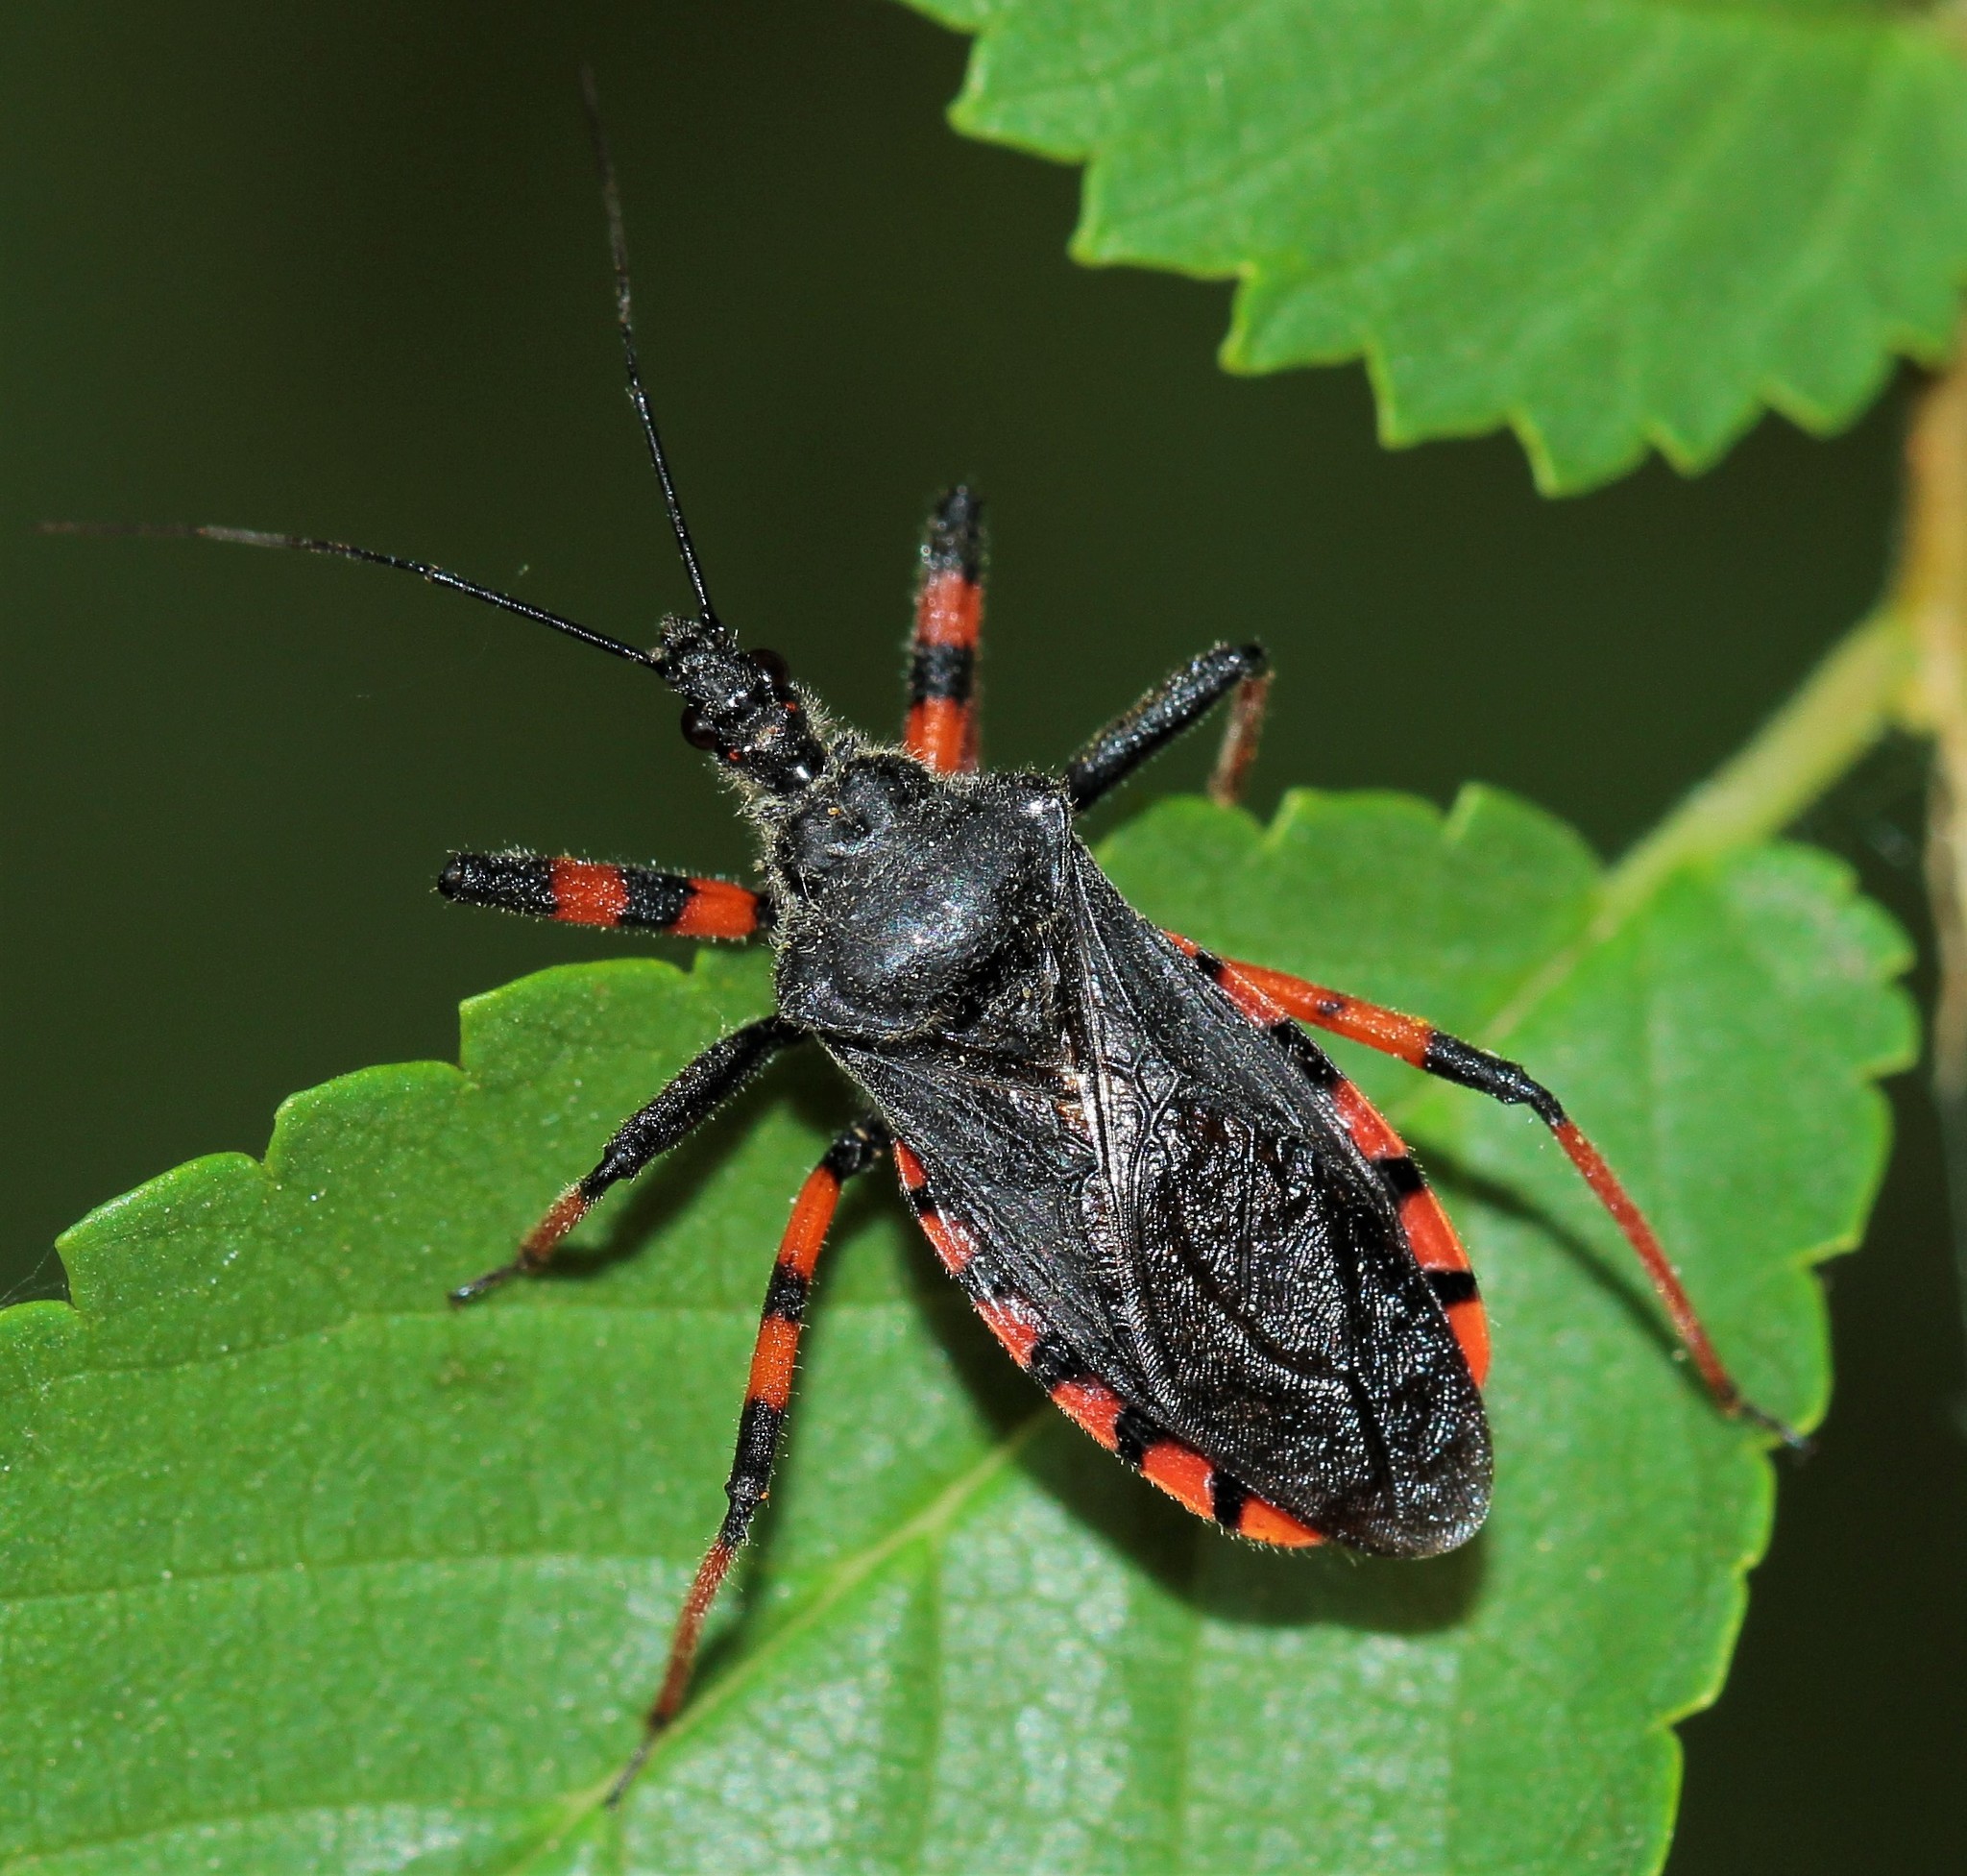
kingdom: Animalia
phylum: Arthropoda
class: Insecta
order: Hemiptera
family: Reduviidae
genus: Rhynocoris
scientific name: Rhynocoris annulatus
